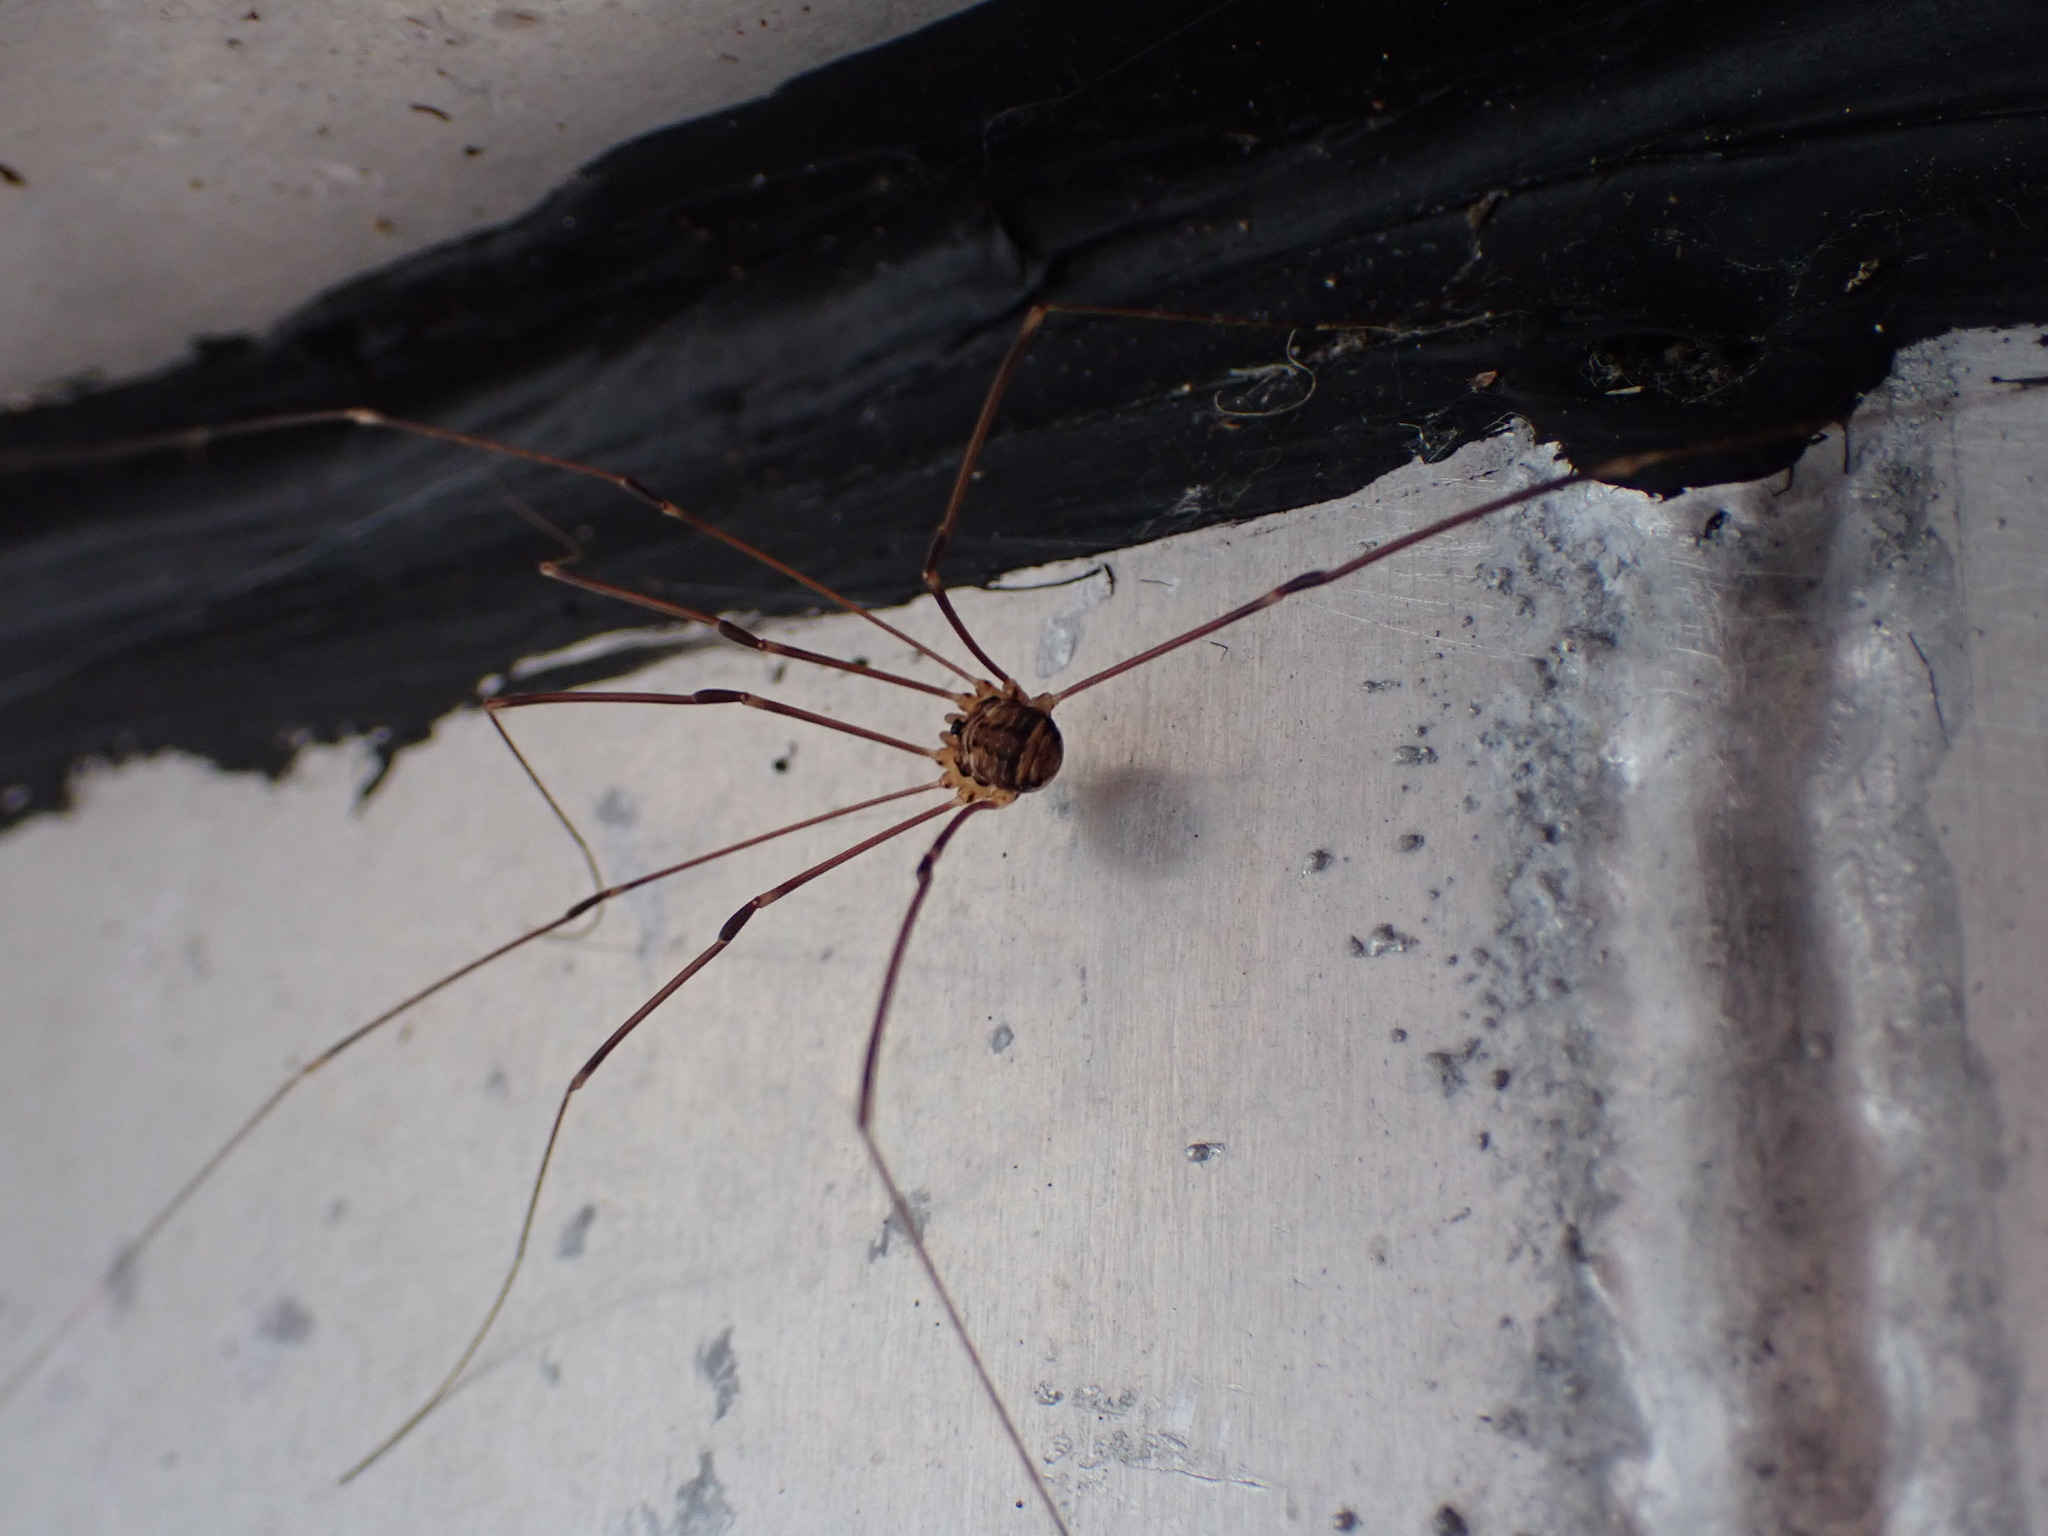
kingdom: Animalia
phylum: Arthropoda
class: Arachnida
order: Opiliones
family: Sclerosomatidae
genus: Nelima
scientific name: Nelima paessleri
